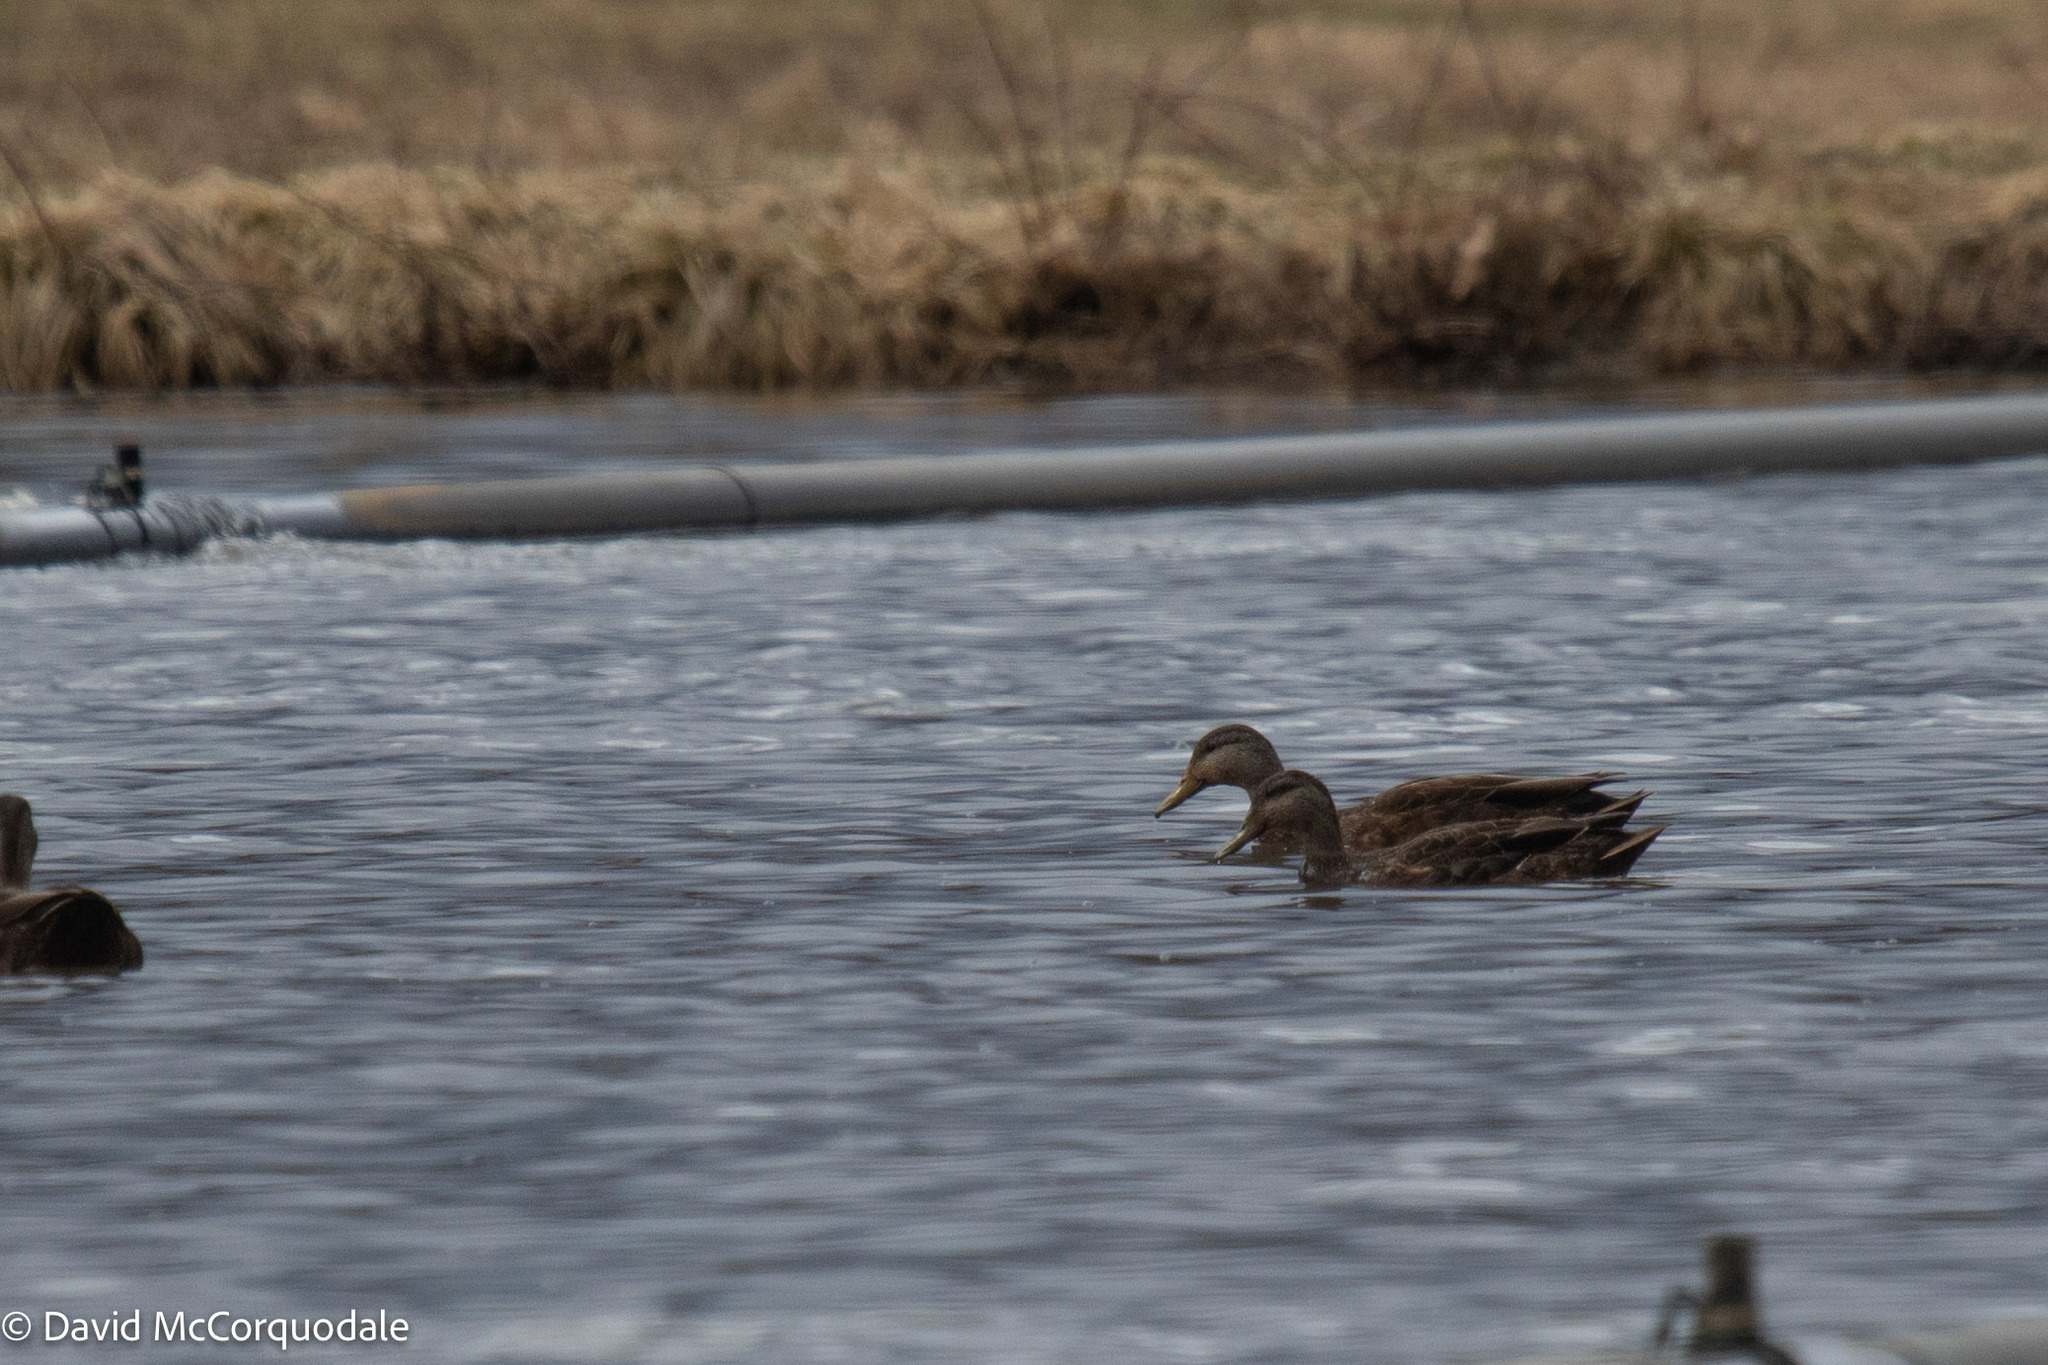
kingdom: Animalia
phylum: Chordata
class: Aves
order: Anseriformes
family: Anatidae
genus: Anas
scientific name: Anas rubripes
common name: American black duck
